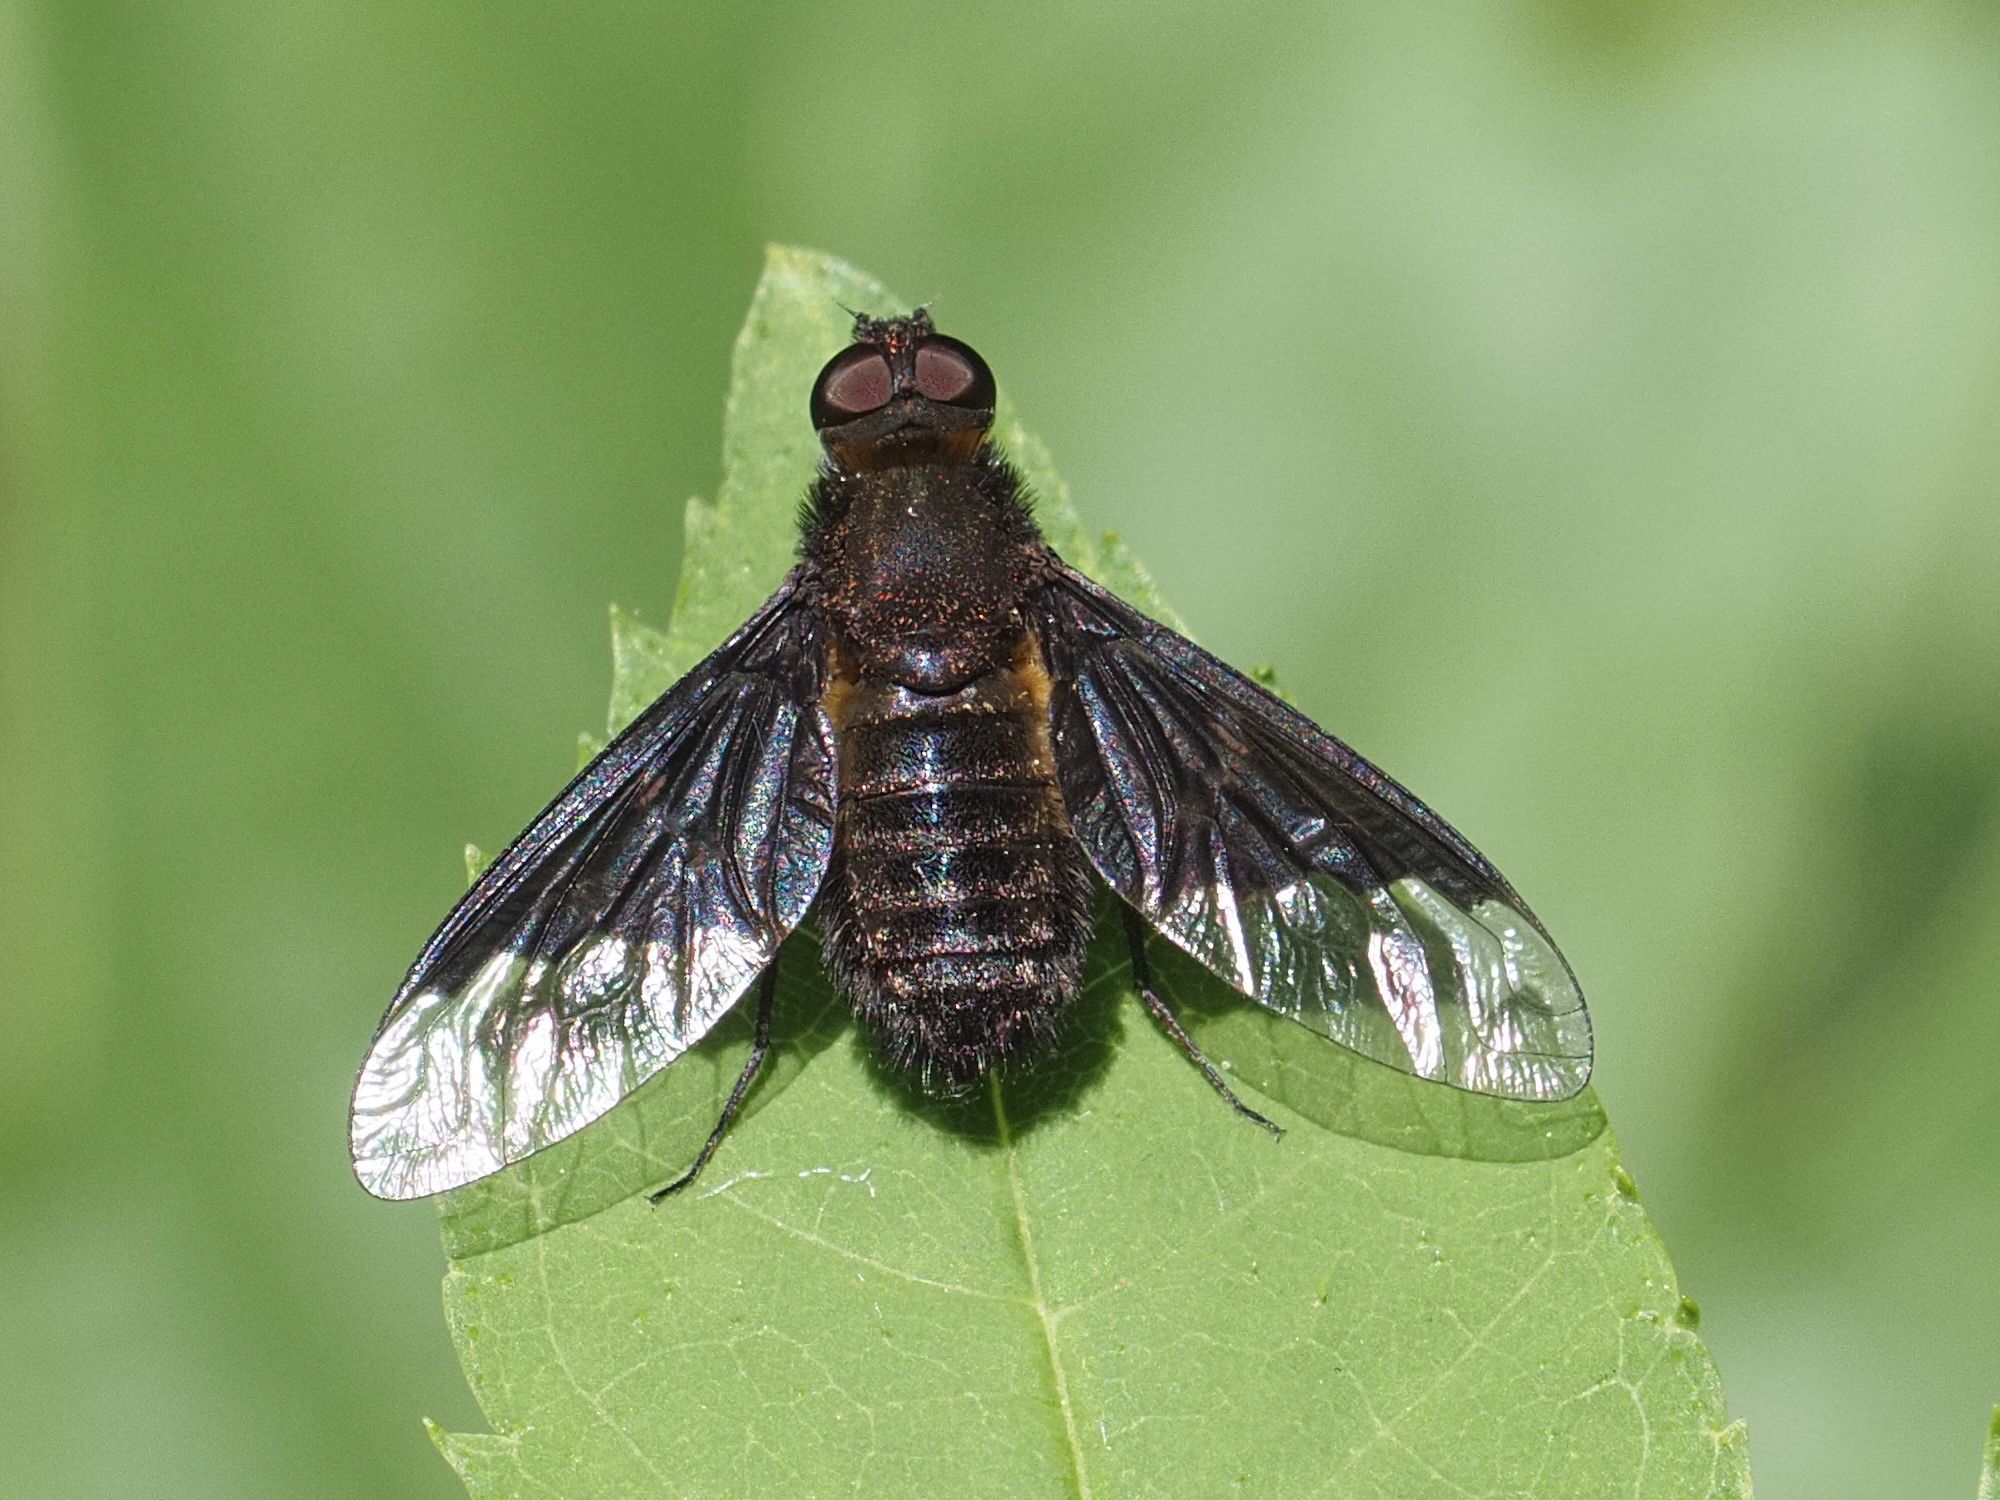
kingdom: Animalia
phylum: Arthropoda
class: Insecta
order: Diptera
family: Bombyliidae
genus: Hemipenthes
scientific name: Hemipenthes morio
